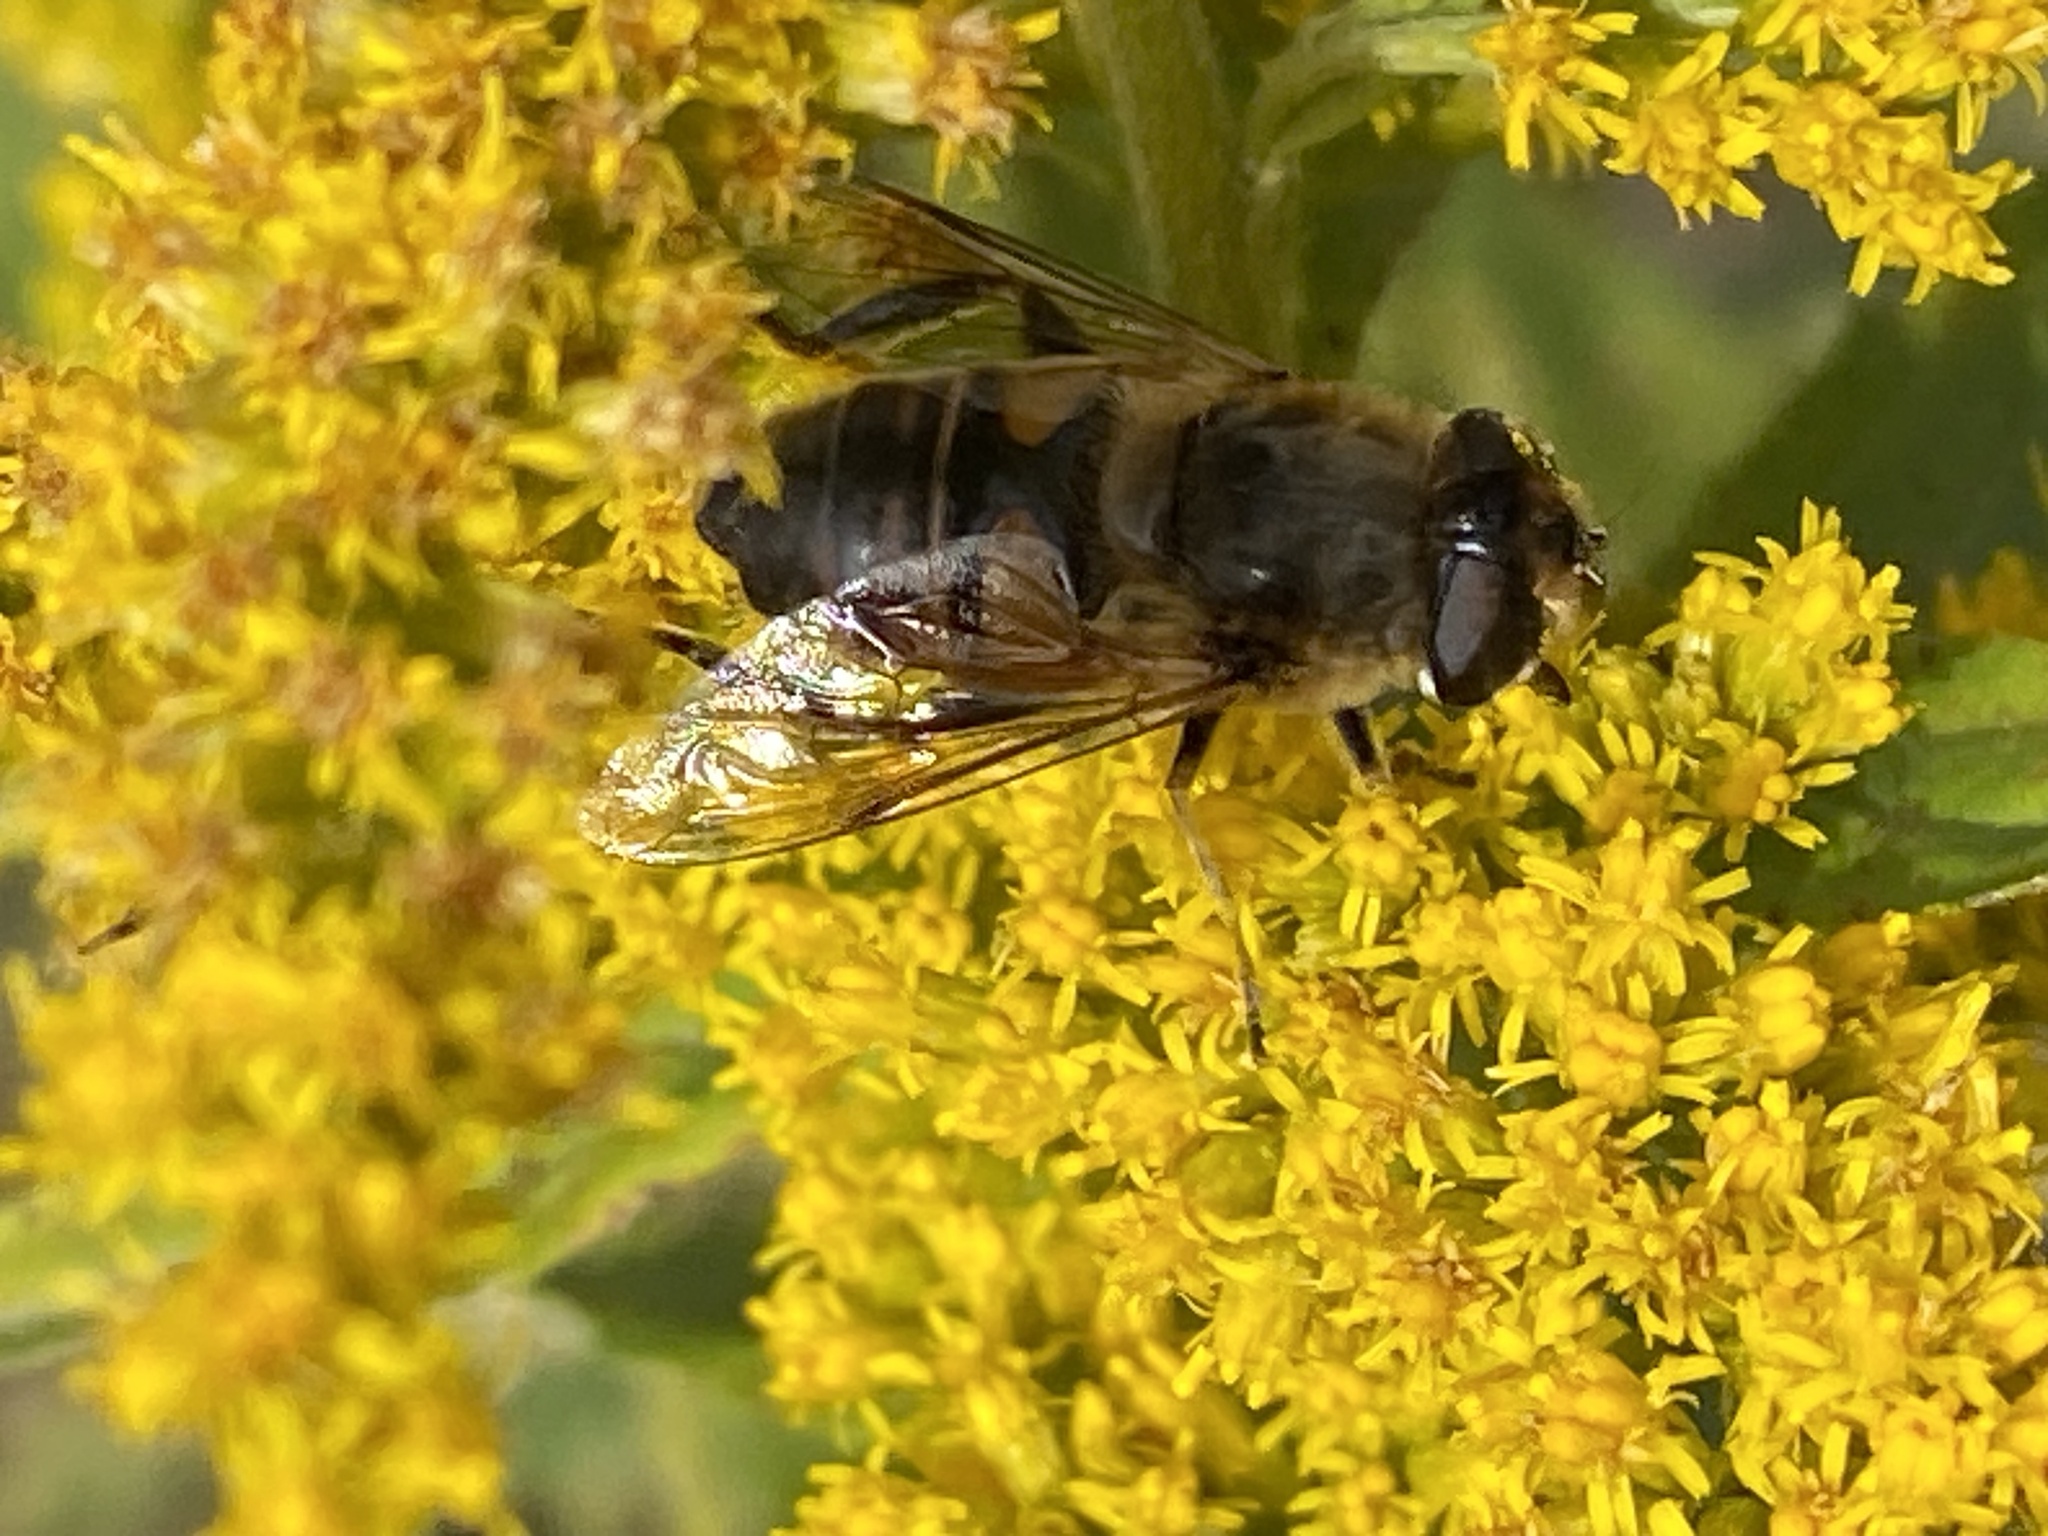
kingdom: Animalia
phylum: Arthropoda
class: Insecta
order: Diptera
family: Syrphidae
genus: Eristalis
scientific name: Eristalis tenax
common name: Drone fly
